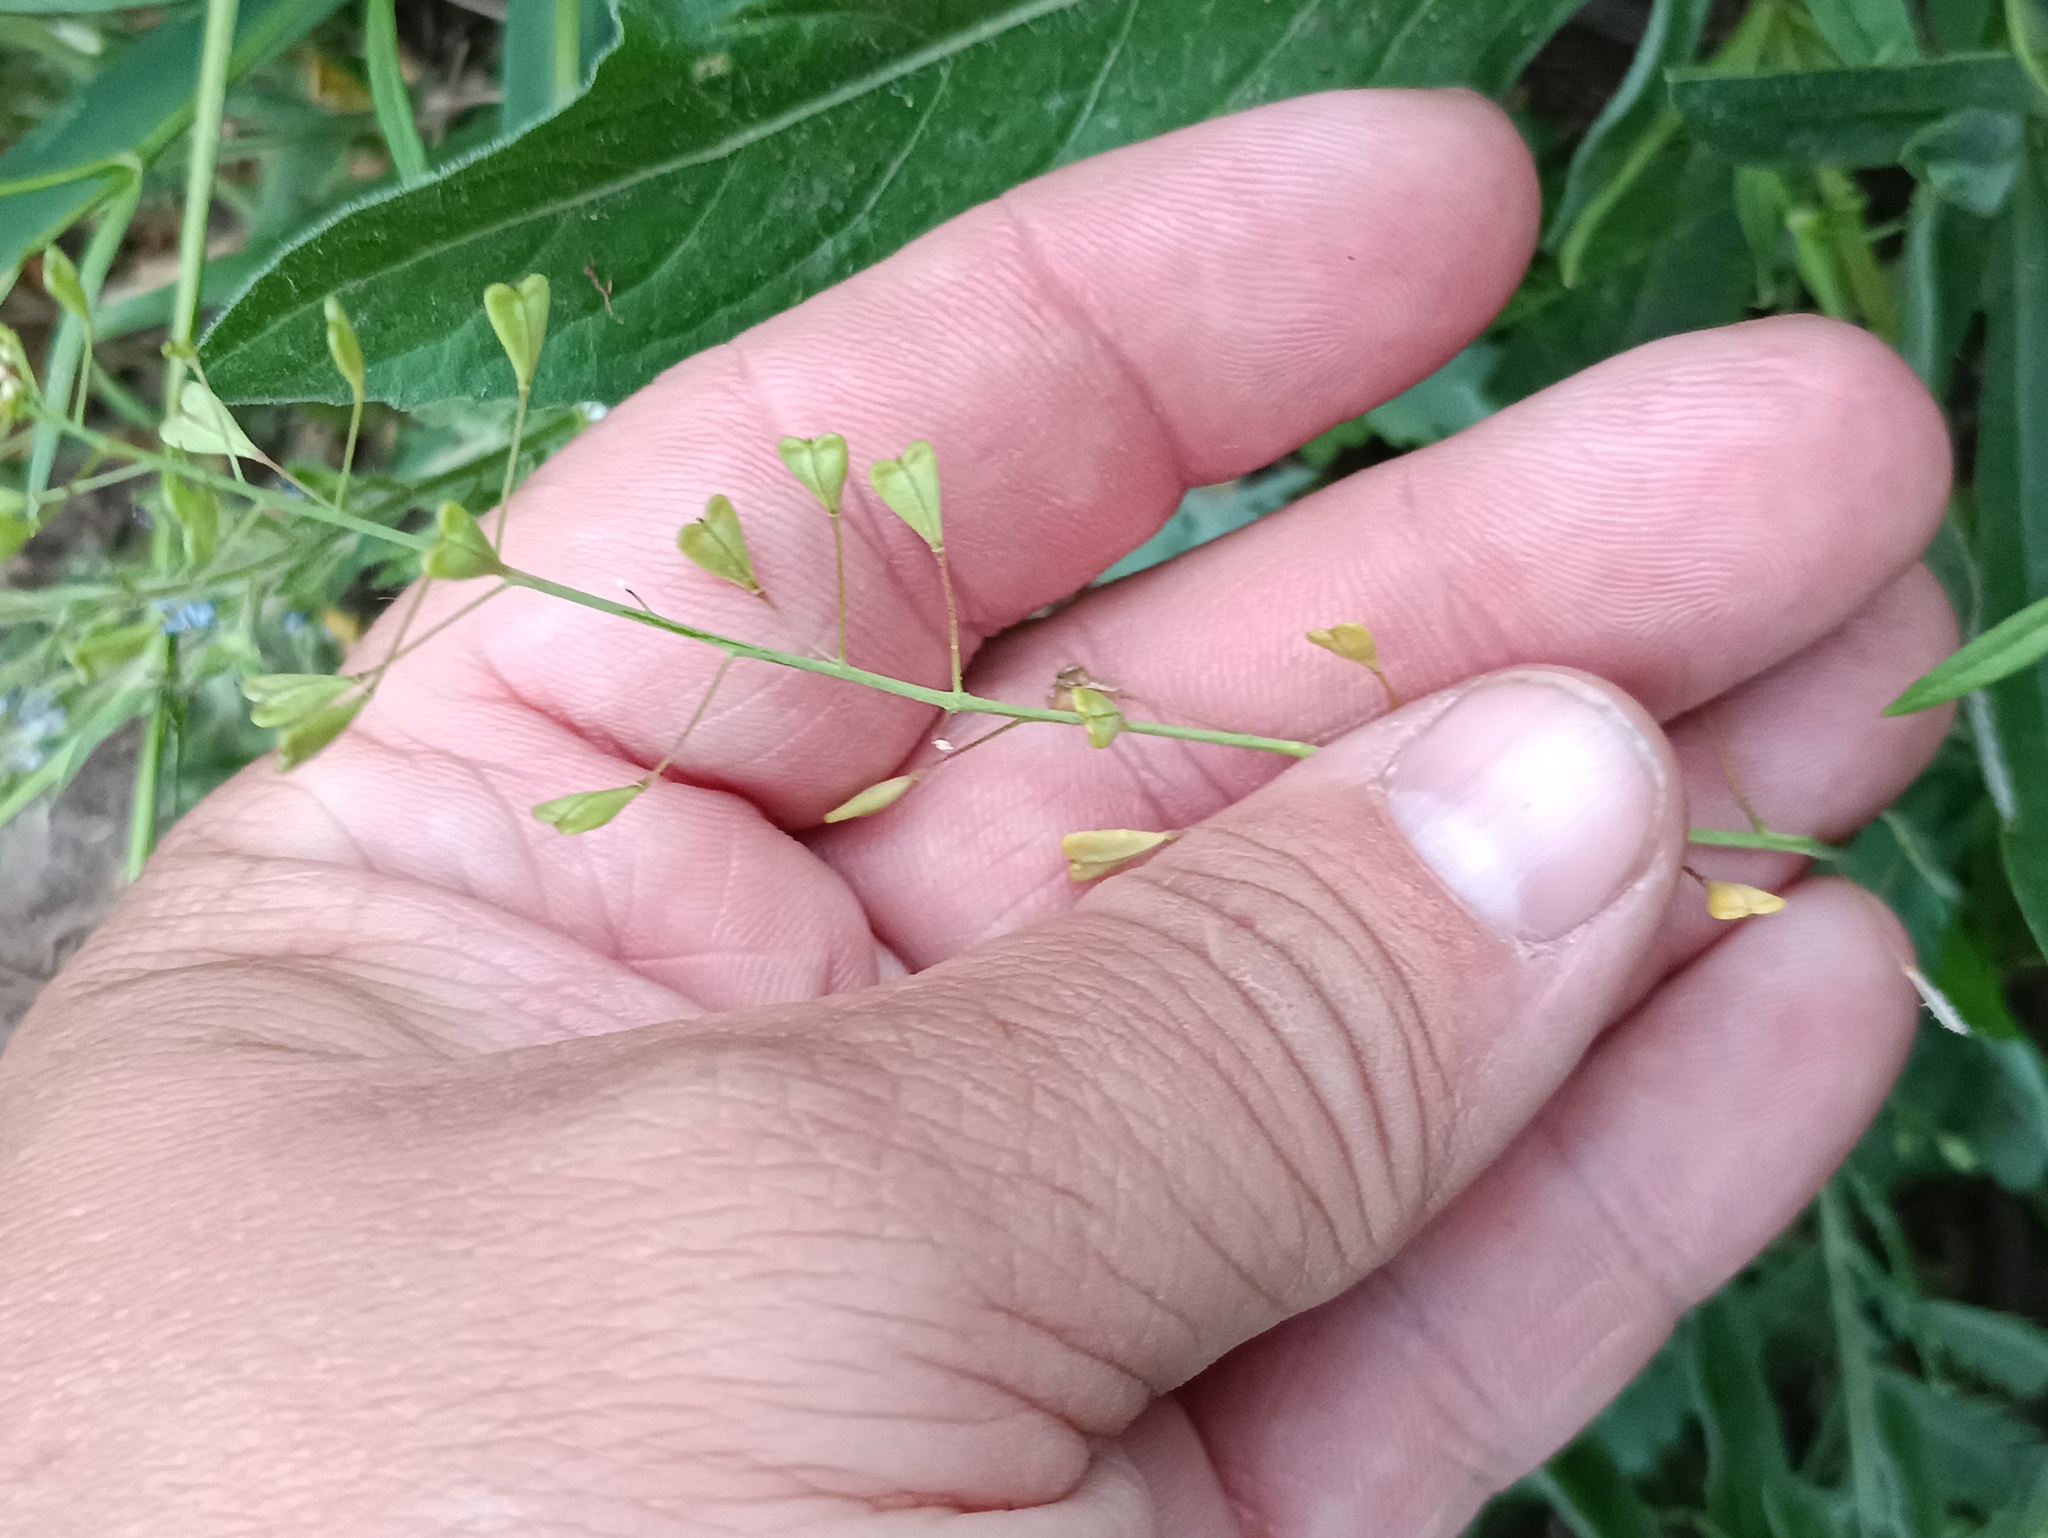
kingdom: Plantae
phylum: Tracheophyta
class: Magnoliopsida
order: Brassicales
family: Brassicaceae
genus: Capsella
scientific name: Capsella bursa-pastoris
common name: Shepherd's purse
